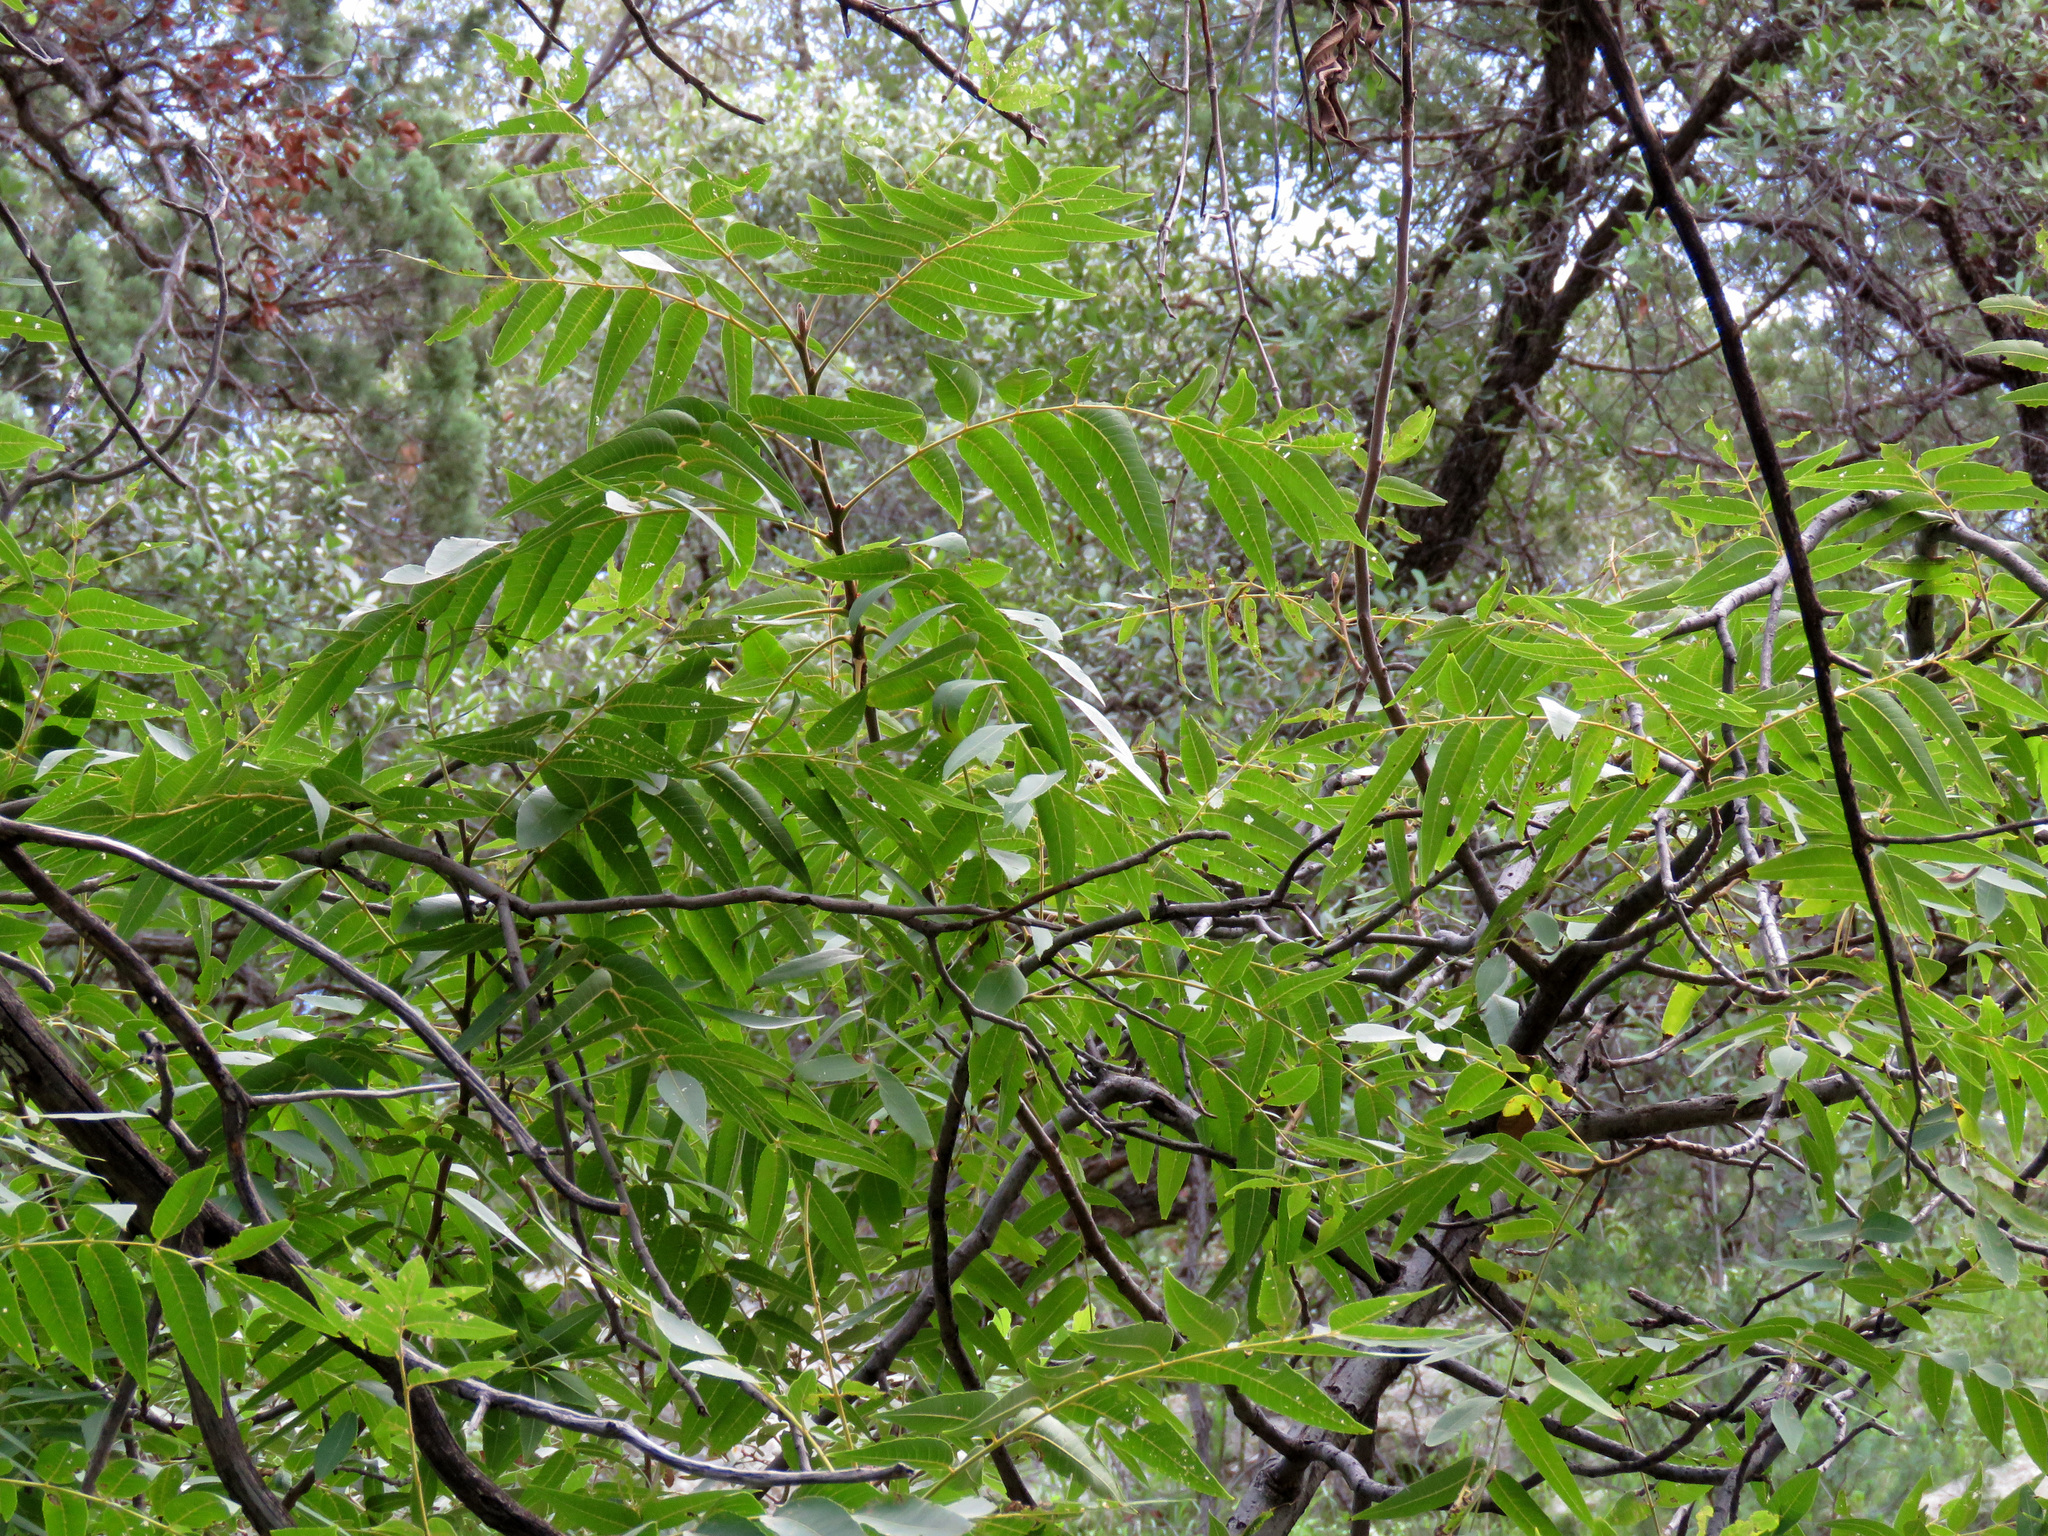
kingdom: Plantae
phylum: Tracheophyta
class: Magnoliopsida
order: Fagales
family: Juglandaceae
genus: Juglans
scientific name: Juglans major
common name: Arizona walnut
